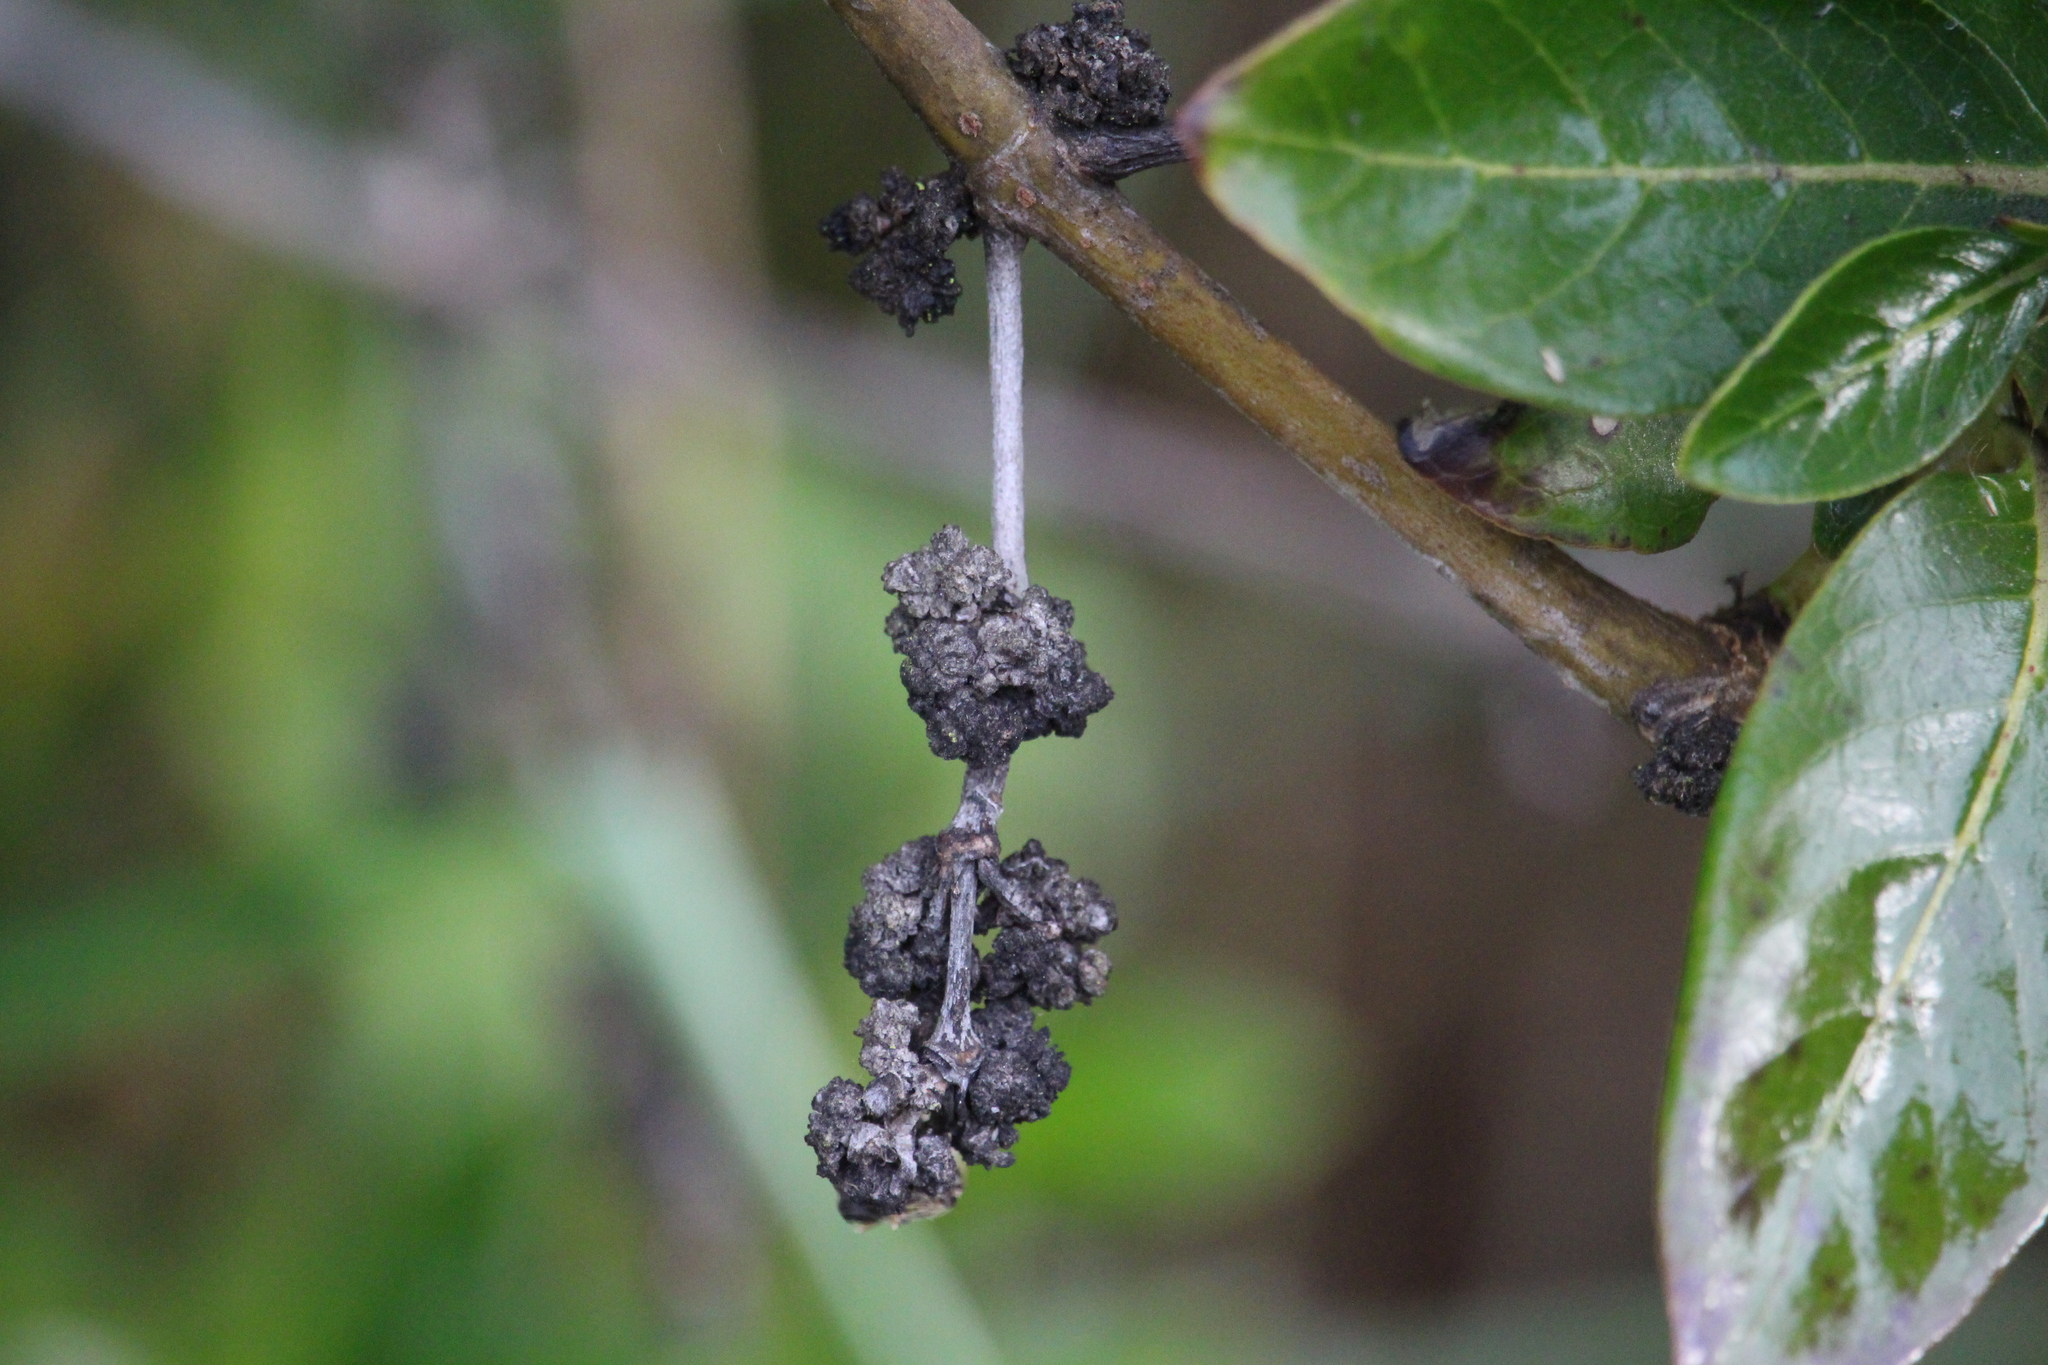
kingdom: Plantae
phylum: Tracheophyta
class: Magnoliopsida
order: Gentianales
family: Rubiaceae
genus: Coprosma
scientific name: Coprosma robusta
